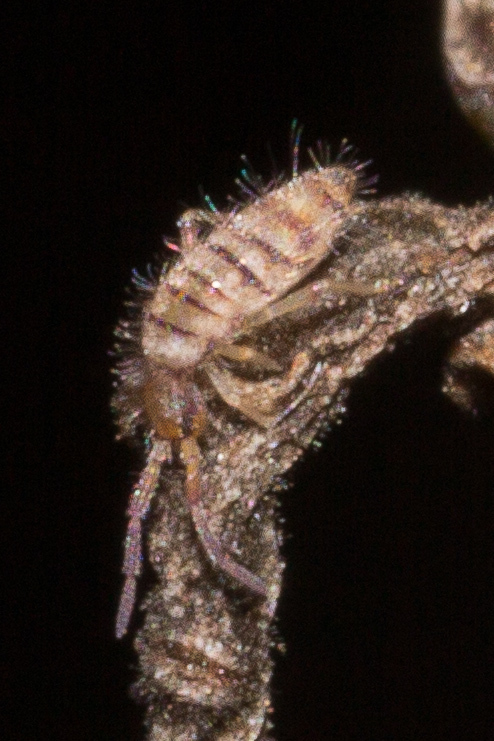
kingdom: Animalia
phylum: Arthropoda
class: Collembola
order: Entomobryomorpha
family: Entomobryidae
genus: Entomobrya
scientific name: Entomobrya atrocincta
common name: Springtail
